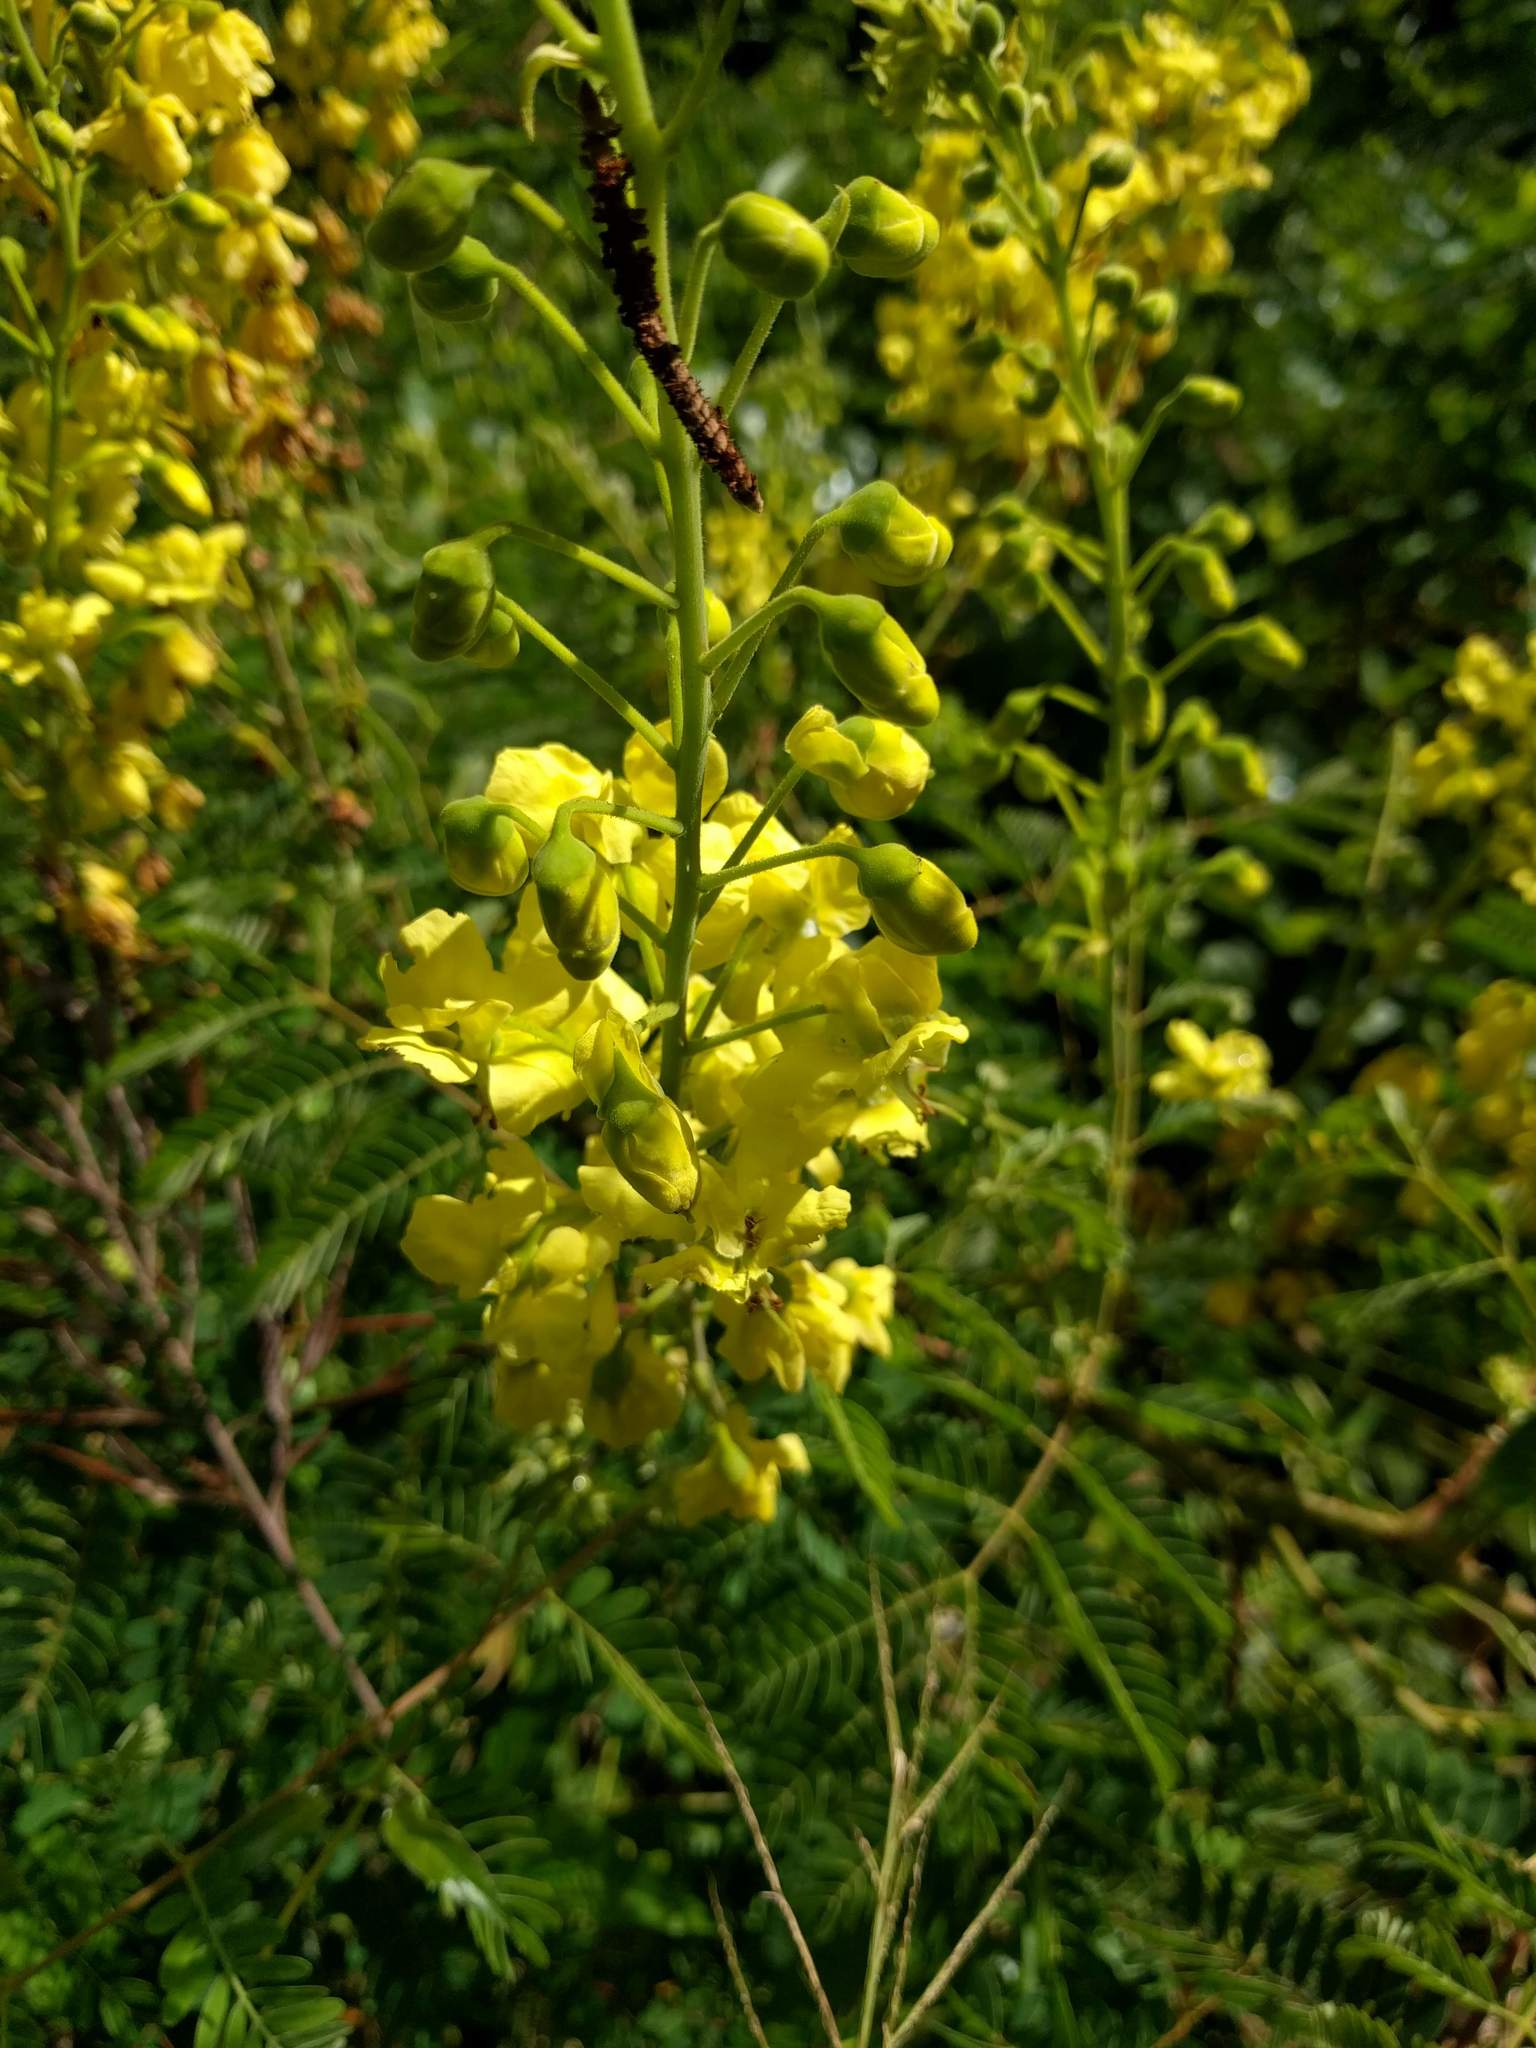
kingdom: Plantae
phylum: Tracheophyta
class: Magnoliopsida
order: Fabales
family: Fabaceae
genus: Biancaea
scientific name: Biancaea decapetala
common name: Cat's claw
